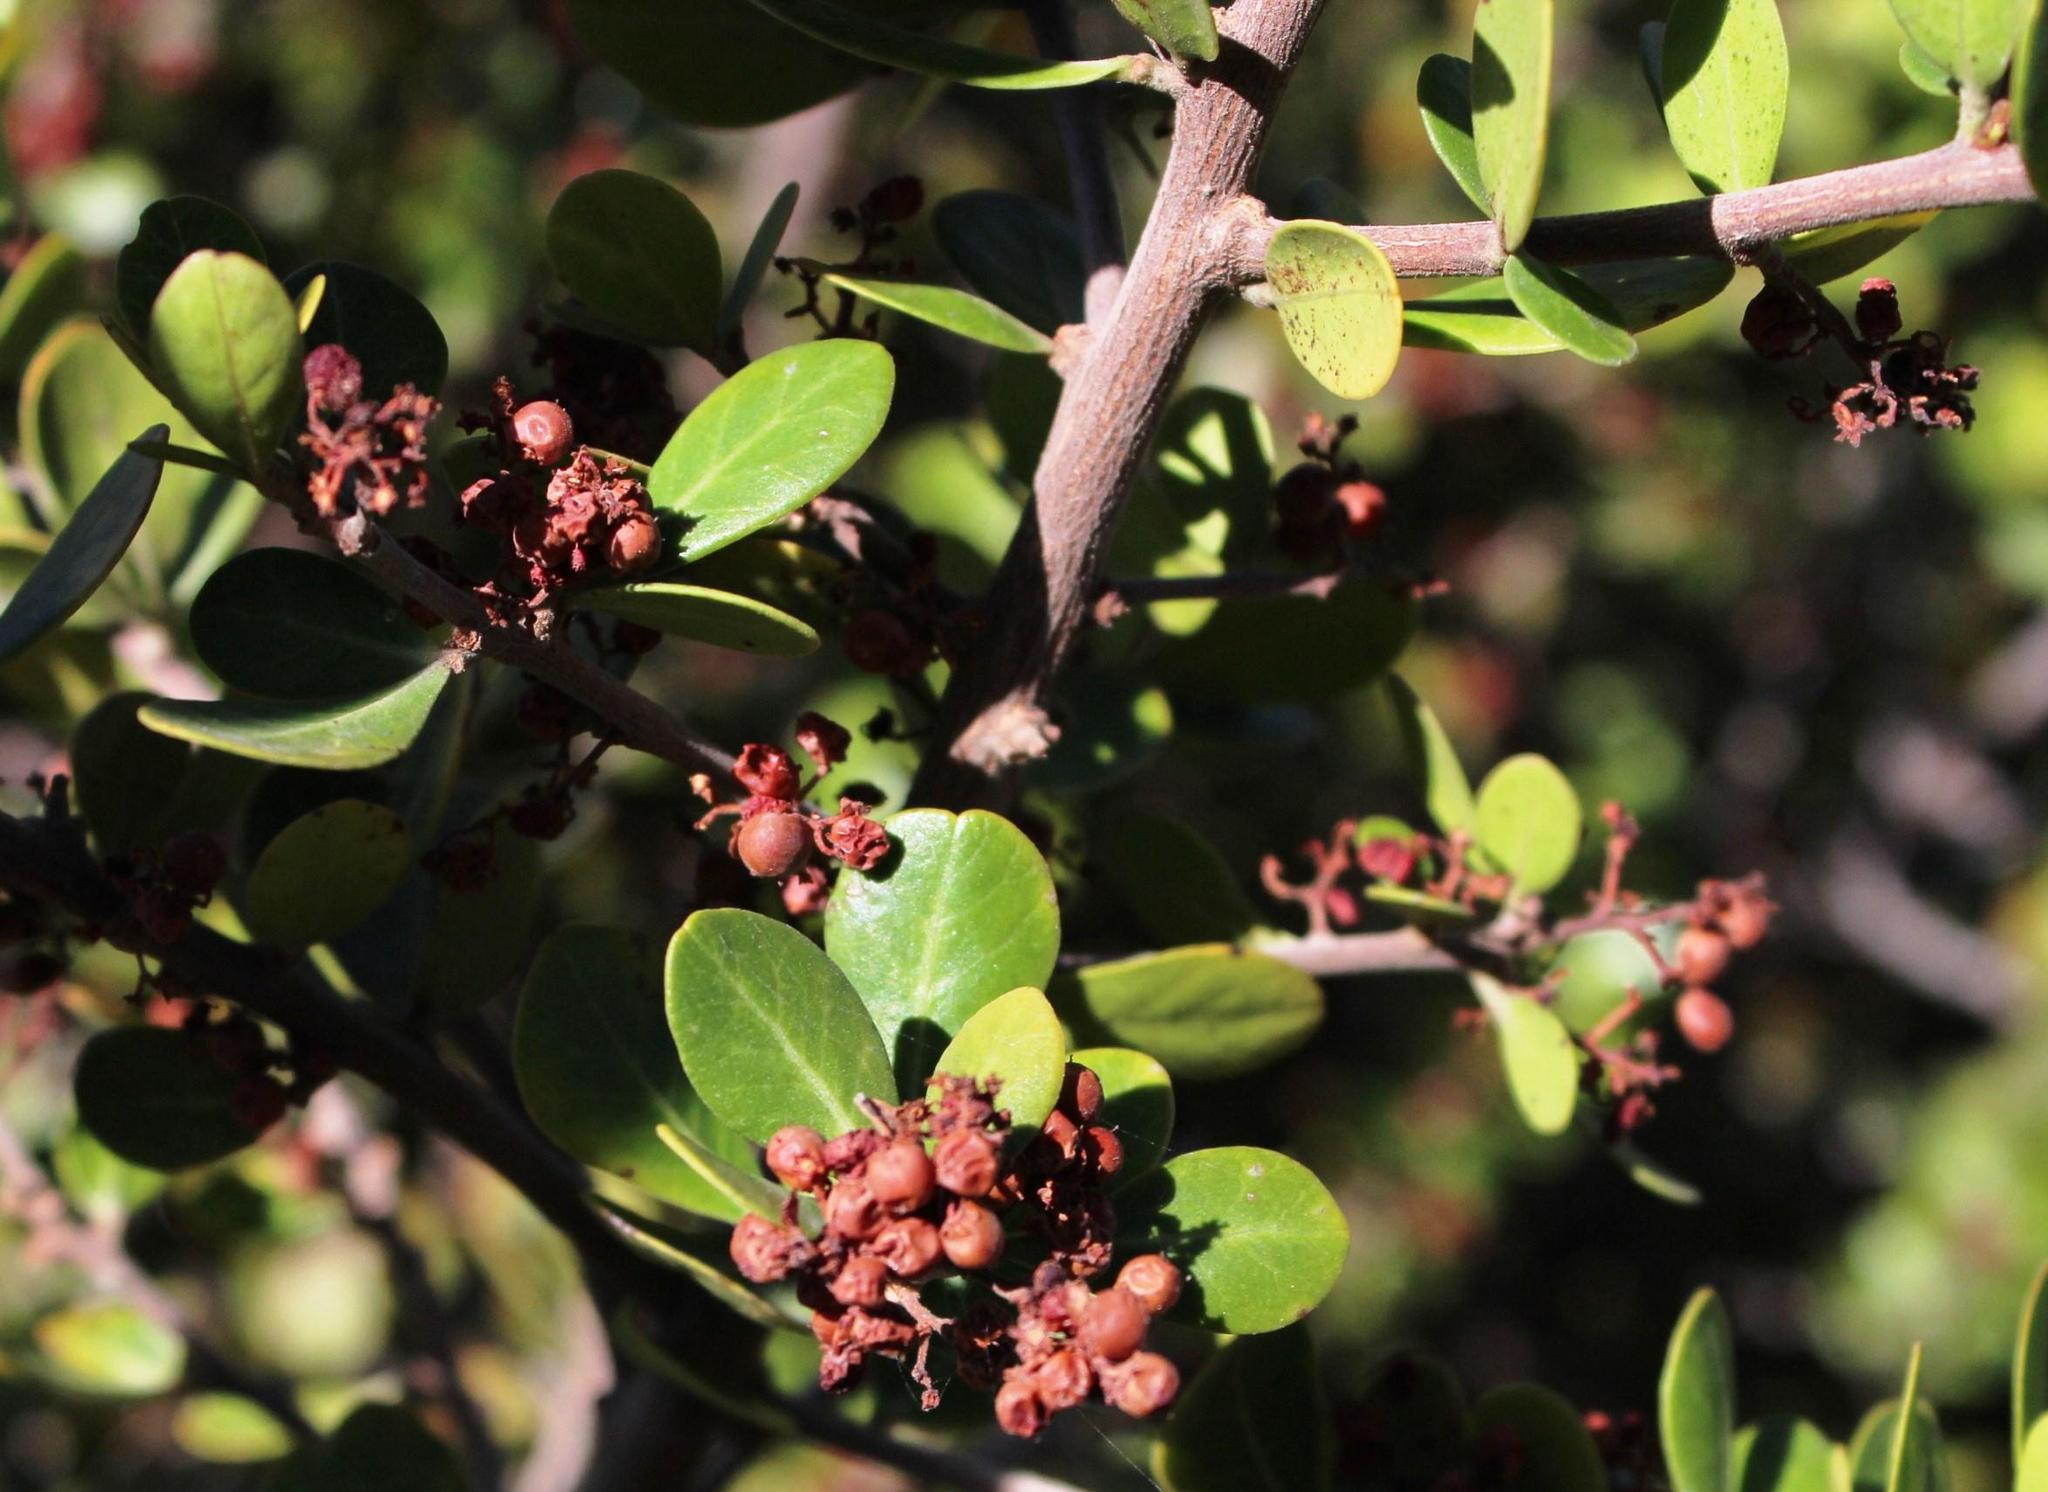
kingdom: Plantae
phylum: Tracheophyta
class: Magnoliopsida
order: Sapindales
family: Anacardiaceae
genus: Searsia
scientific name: Searsia lucida
